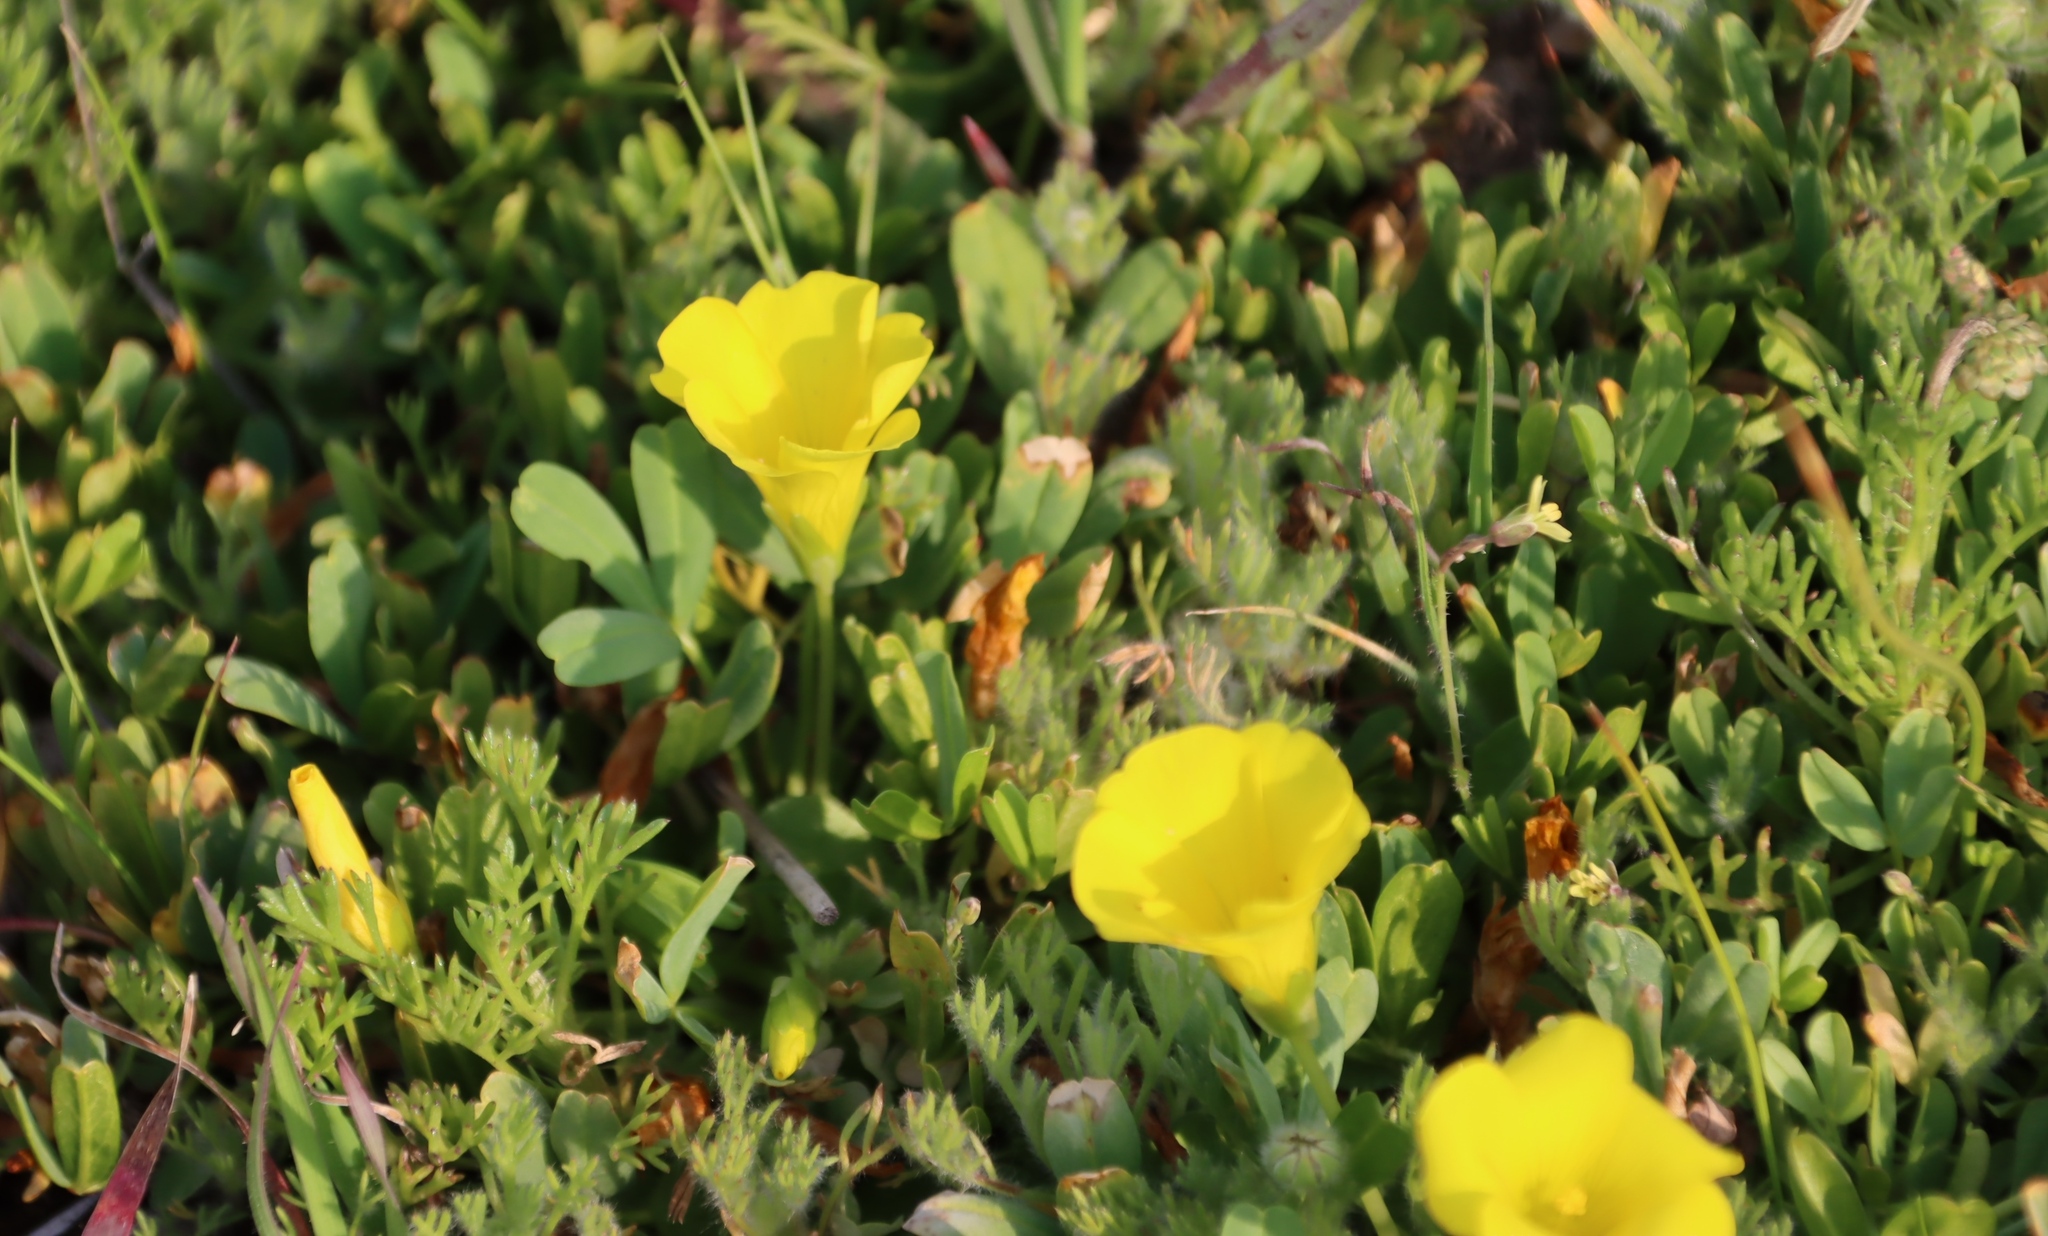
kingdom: Plantae
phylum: Tracheophyta
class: Magnoliopsida
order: Oxalidales
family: Oxalidaceae
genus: Oxalis
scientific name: Oxalis namaquana
